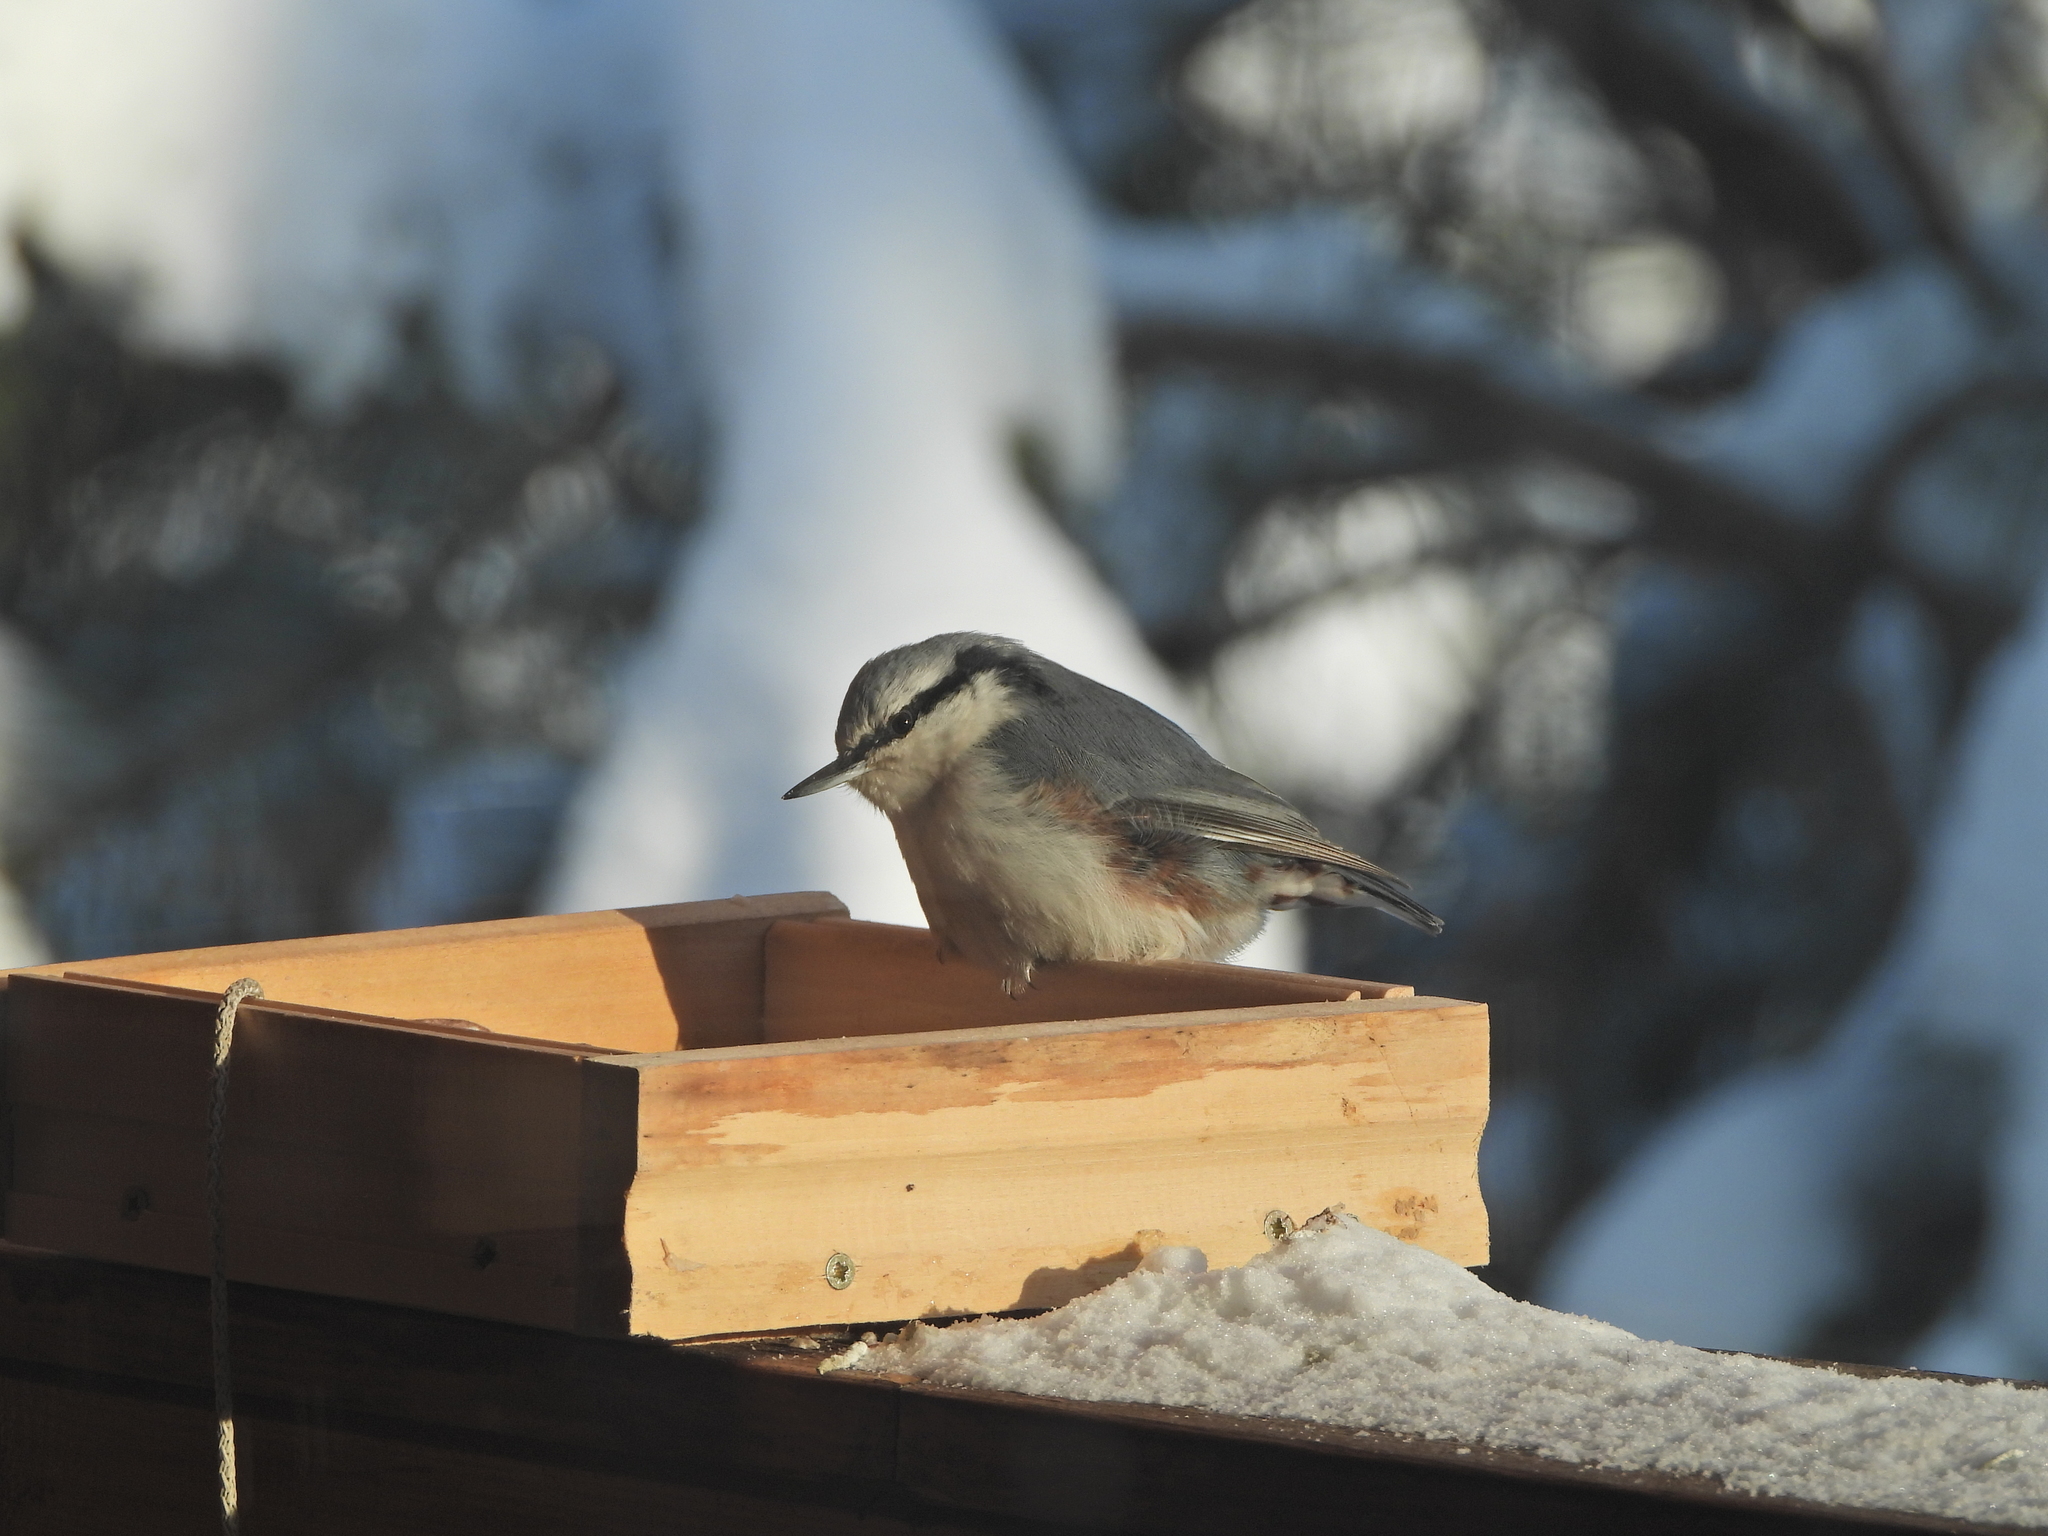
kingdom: Animalia
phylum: Chordata
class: Aves
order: Passeriformes
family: Sittidae
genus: Sitta
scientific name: Sitta europaea
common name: Eurasian nuthatch
